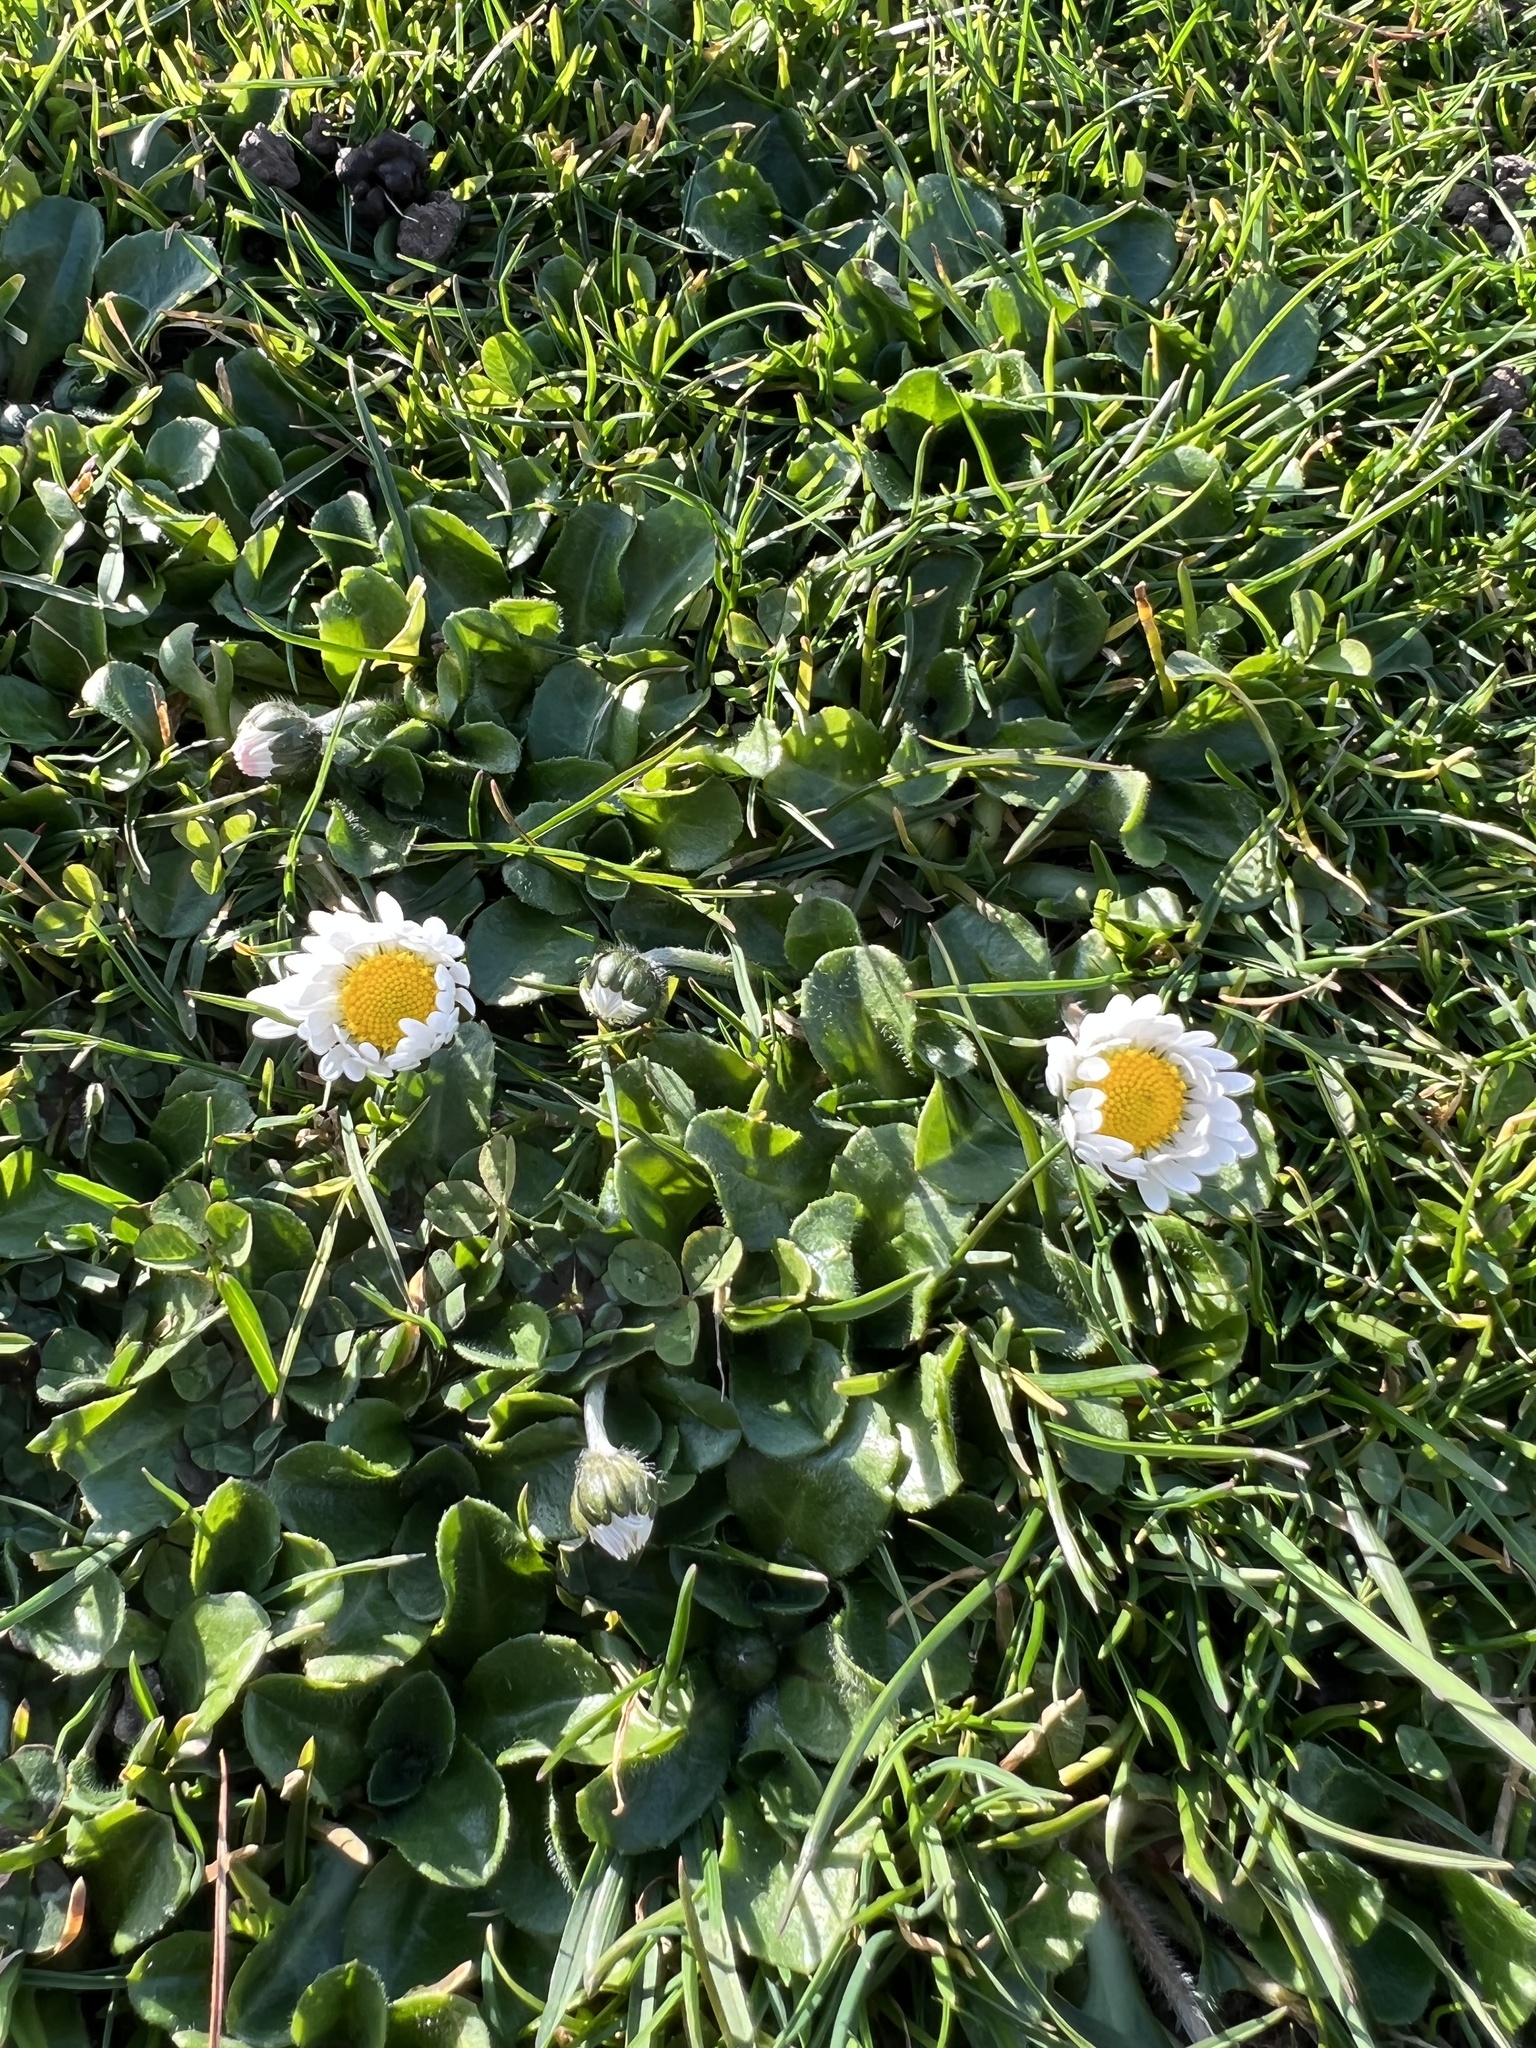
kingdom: Plantae
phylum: Tracheophyta
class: Magnoliopsida
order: Asterales
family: Asteraceae
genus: Bellis
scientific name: Bellis perennis
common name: Lawndaisy
